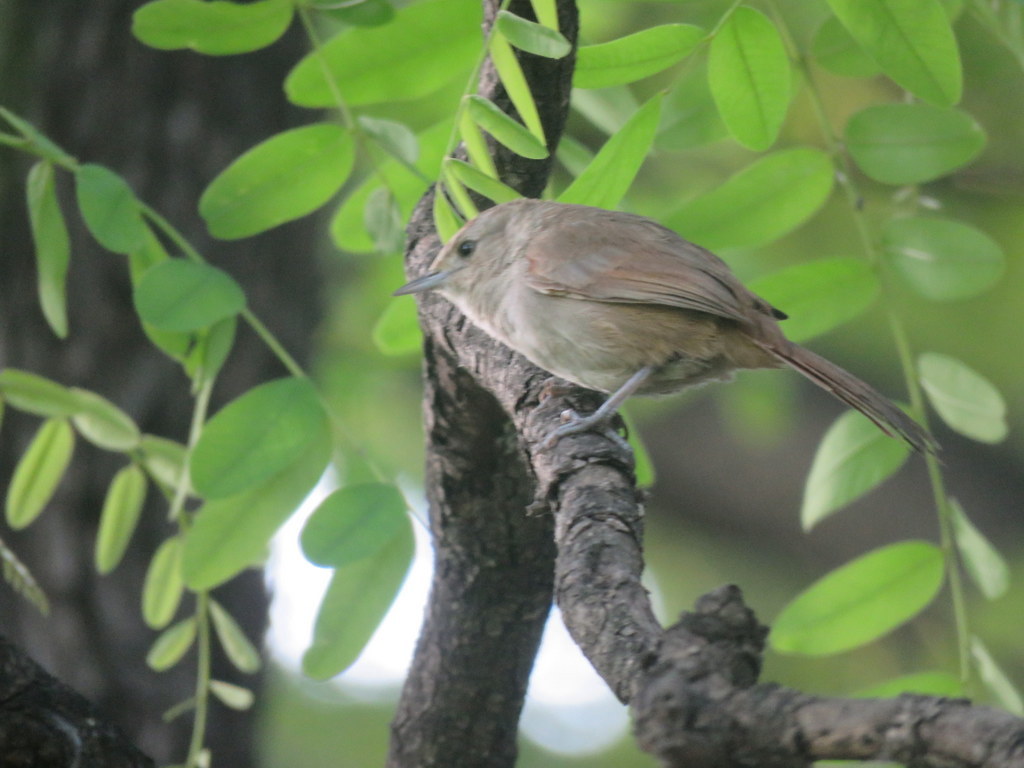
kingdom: Animalia
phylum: Chordata
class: Aves
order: Passeriformes
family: Furnariidae
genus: Phacellodomus
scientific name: Phacellodomus sibilatrix
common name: Little thornbird
